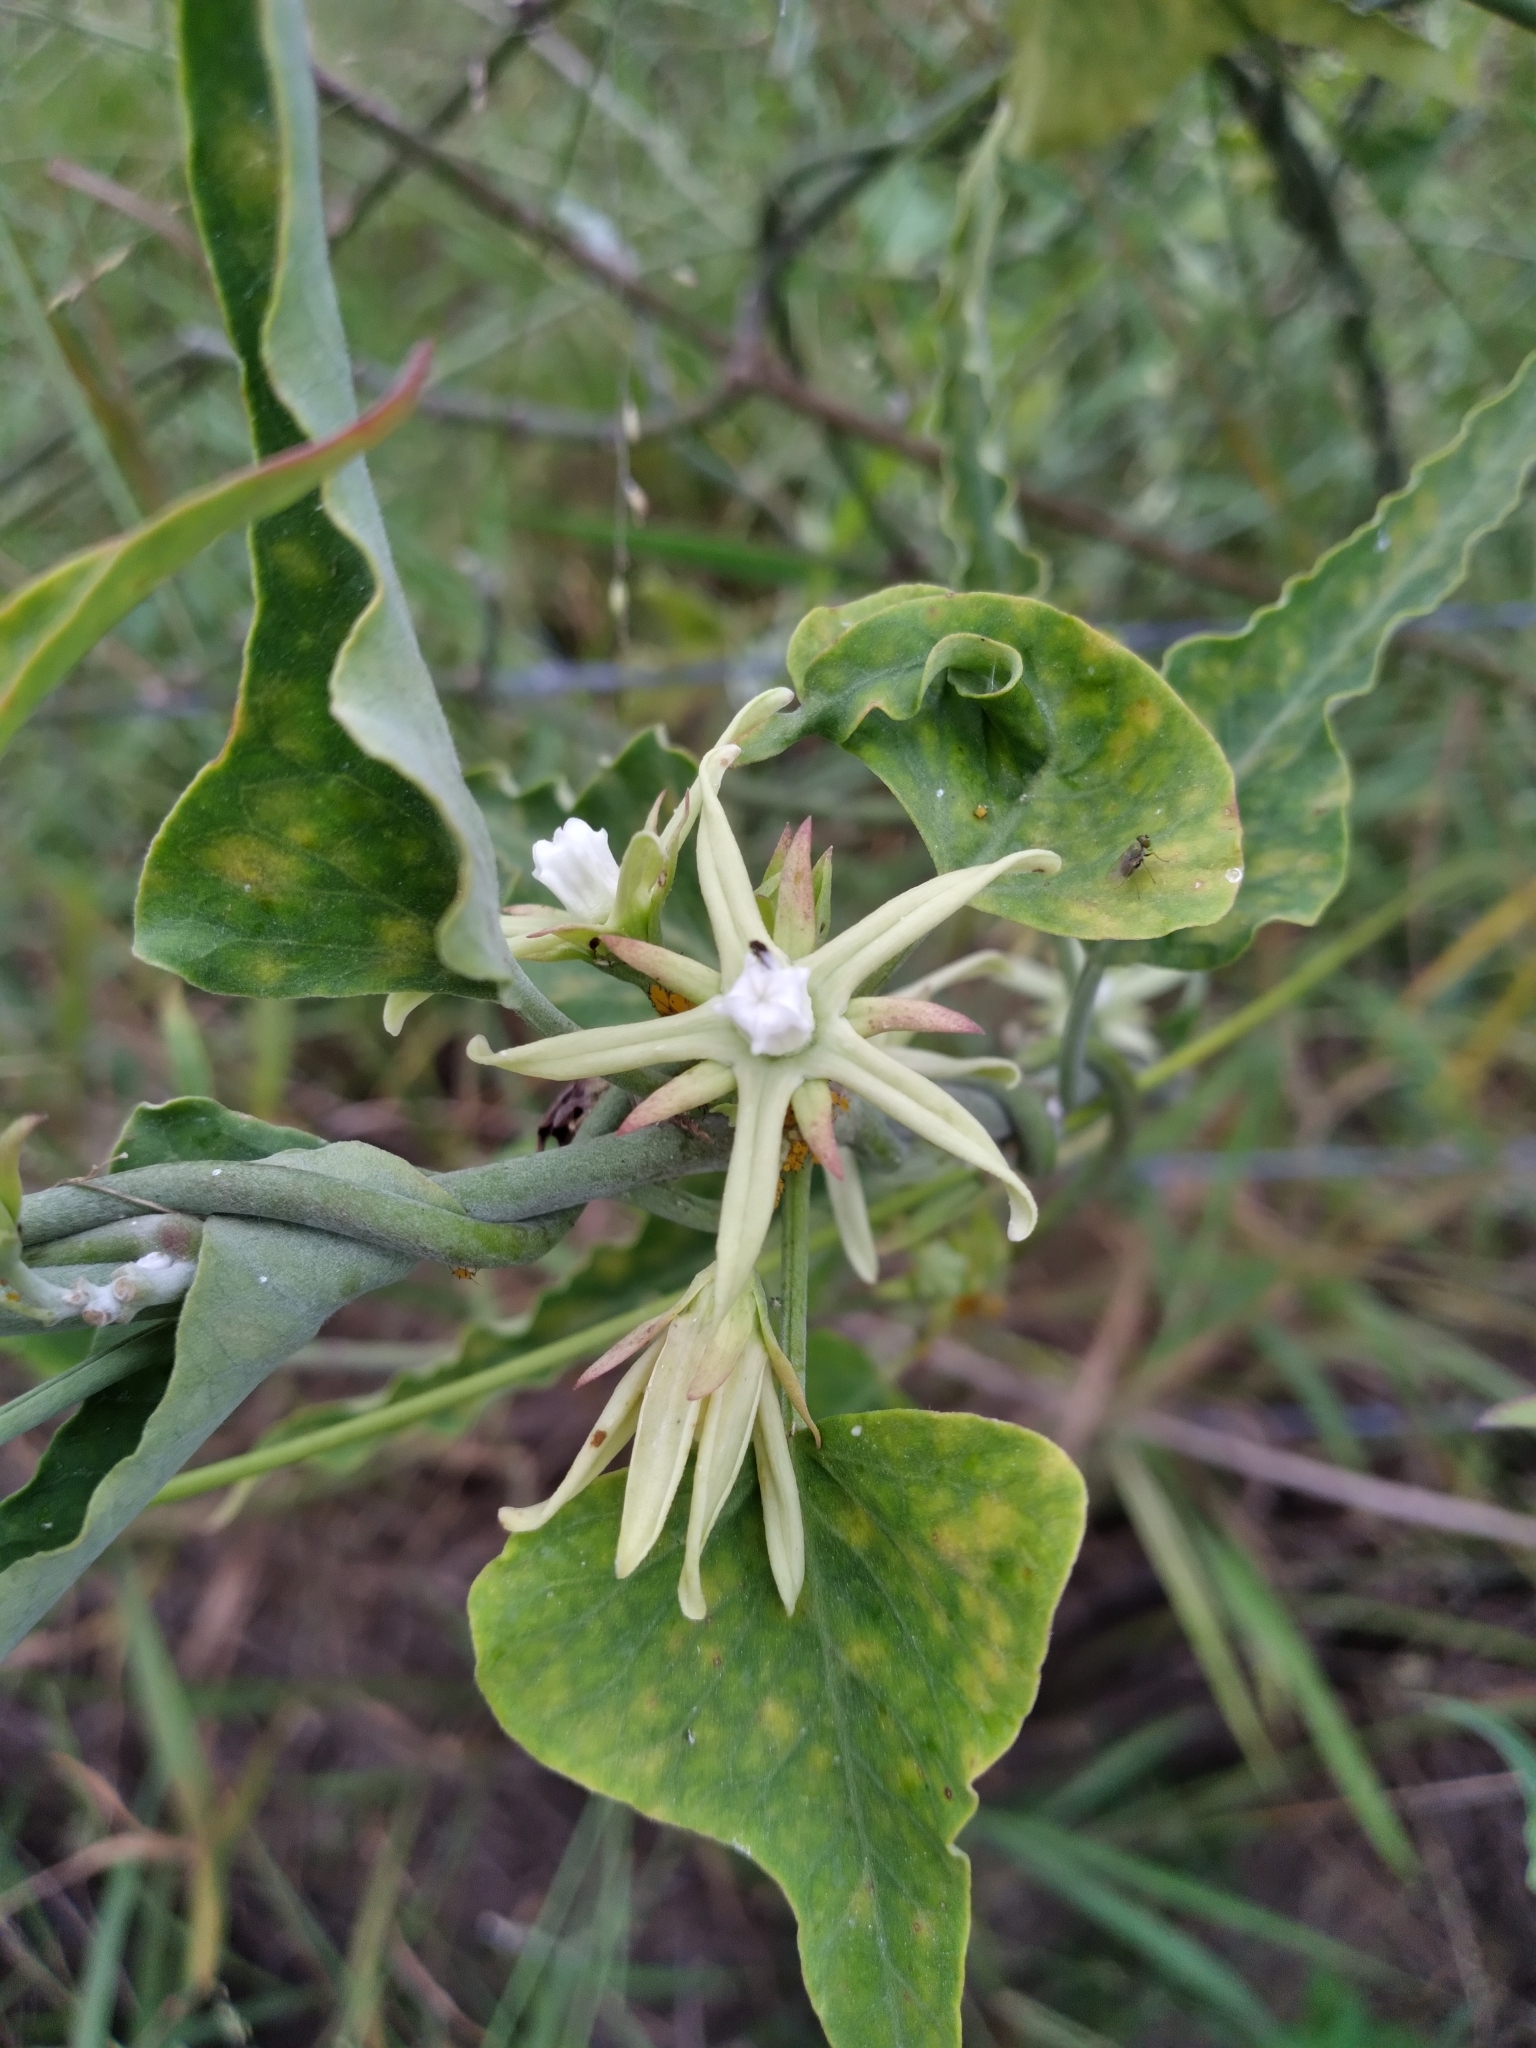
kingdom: Plantae
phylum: Tracheophyta
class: Magnoliopsida
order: Gentianales
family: Apocynaceae
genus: Araujia
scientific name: Araujia odorata
